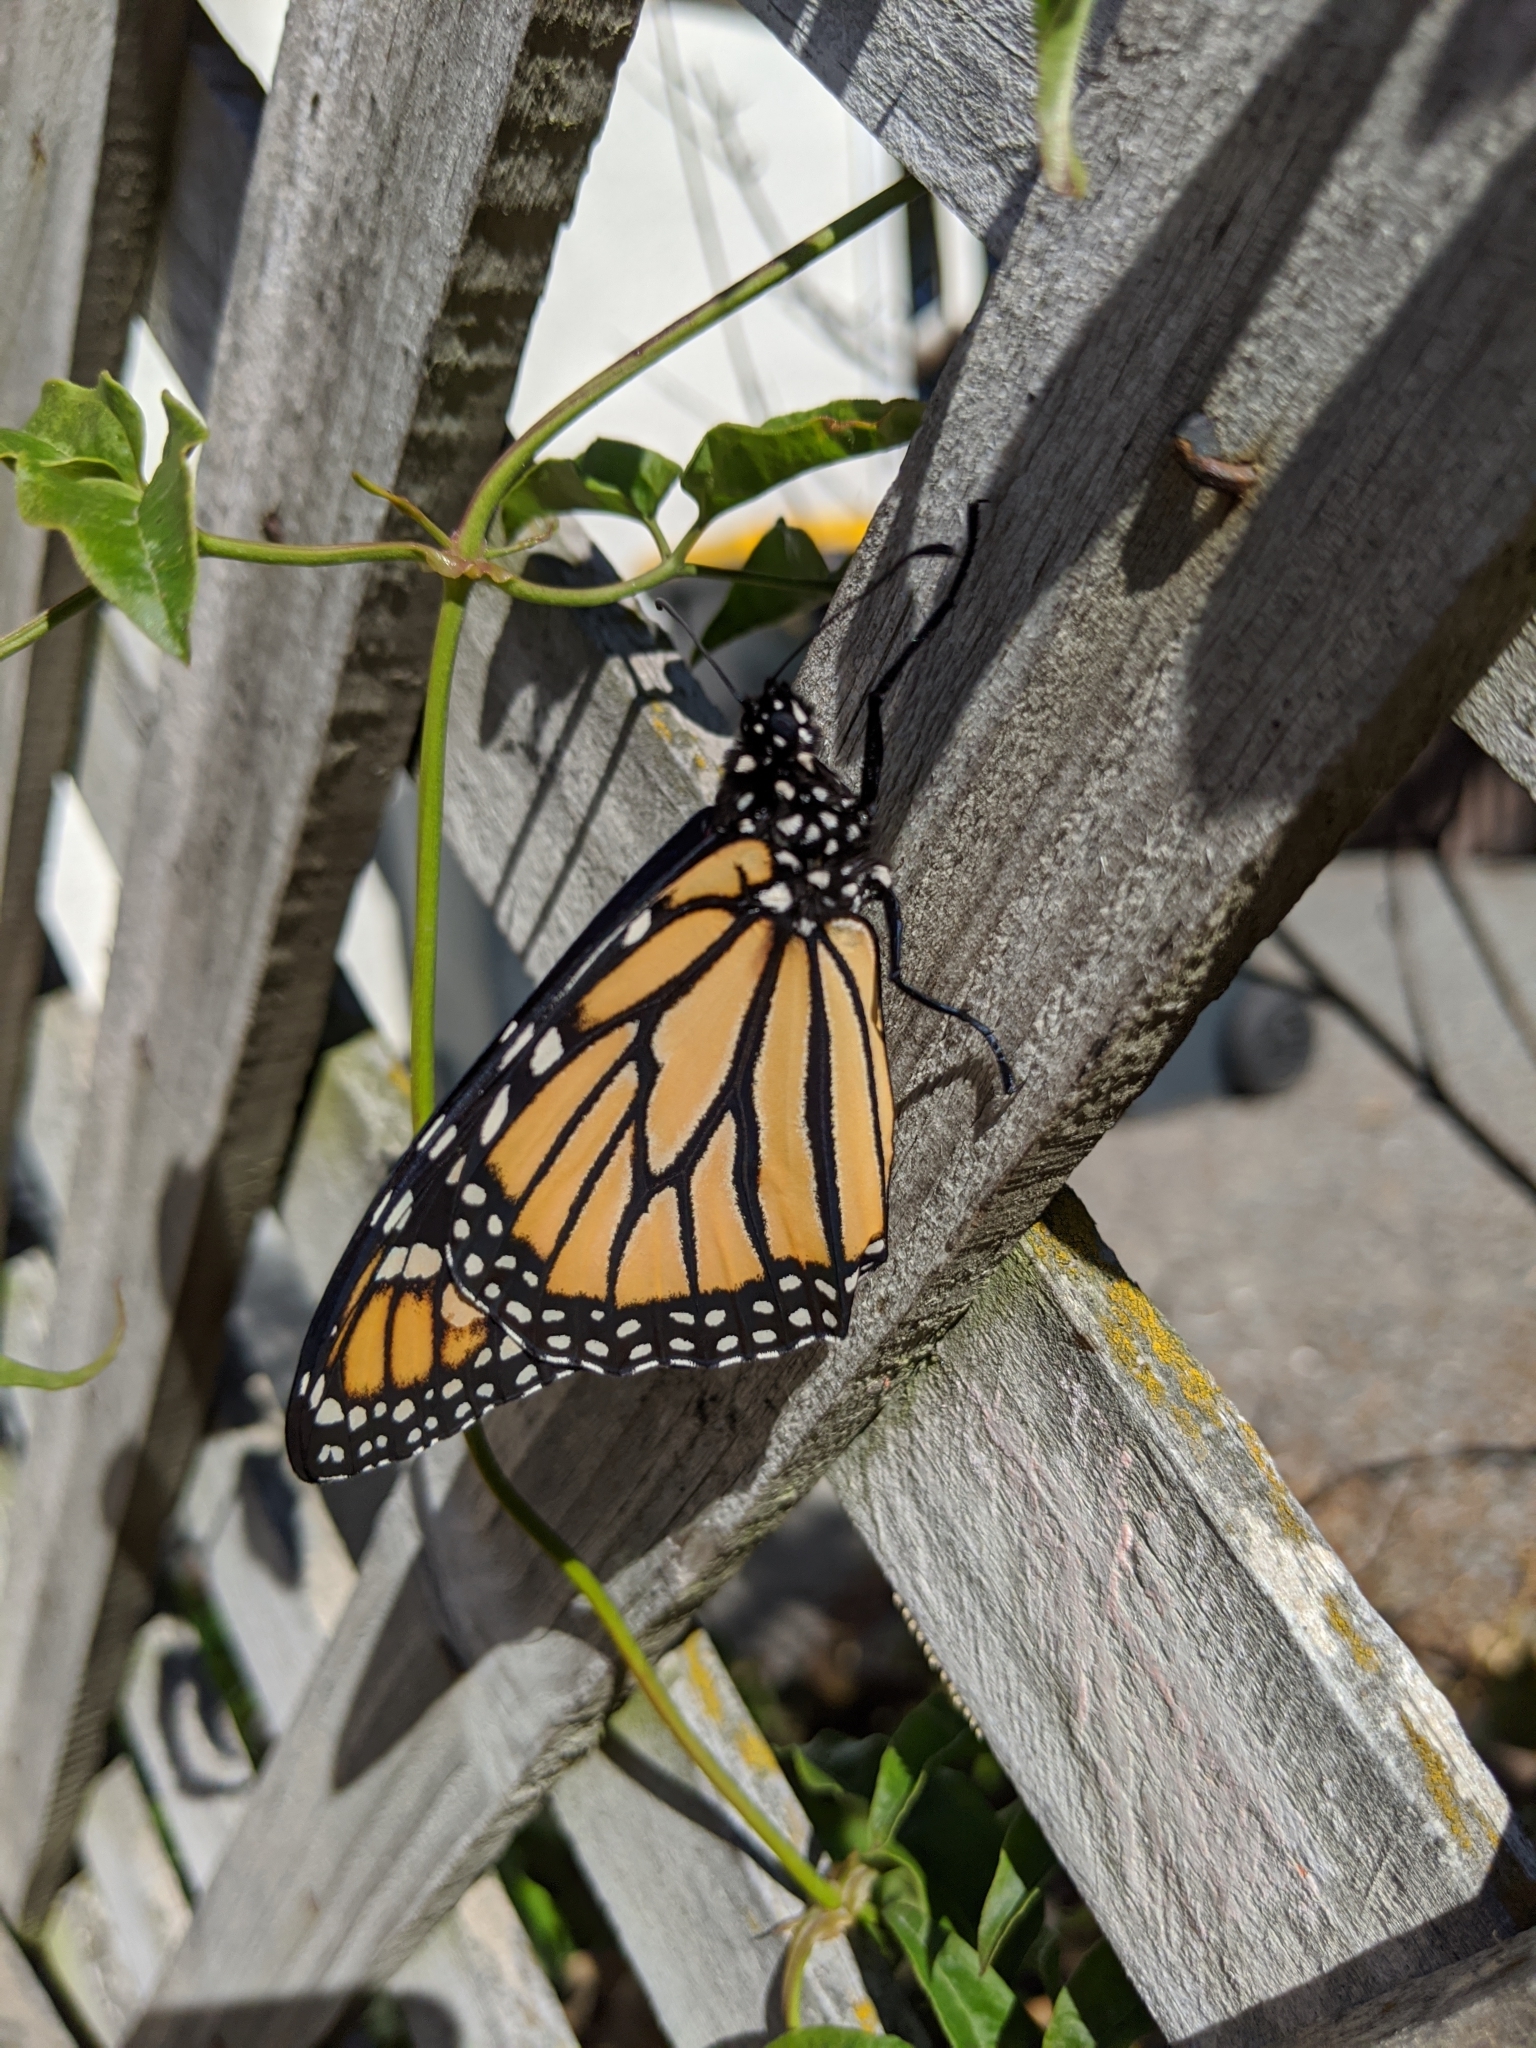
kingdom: Animalia
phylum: Arthropoda
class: Insecta
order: Lepidoptera
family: Nymphalidae
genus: Danaus
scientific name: Danaus plexippus
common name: Monarch
